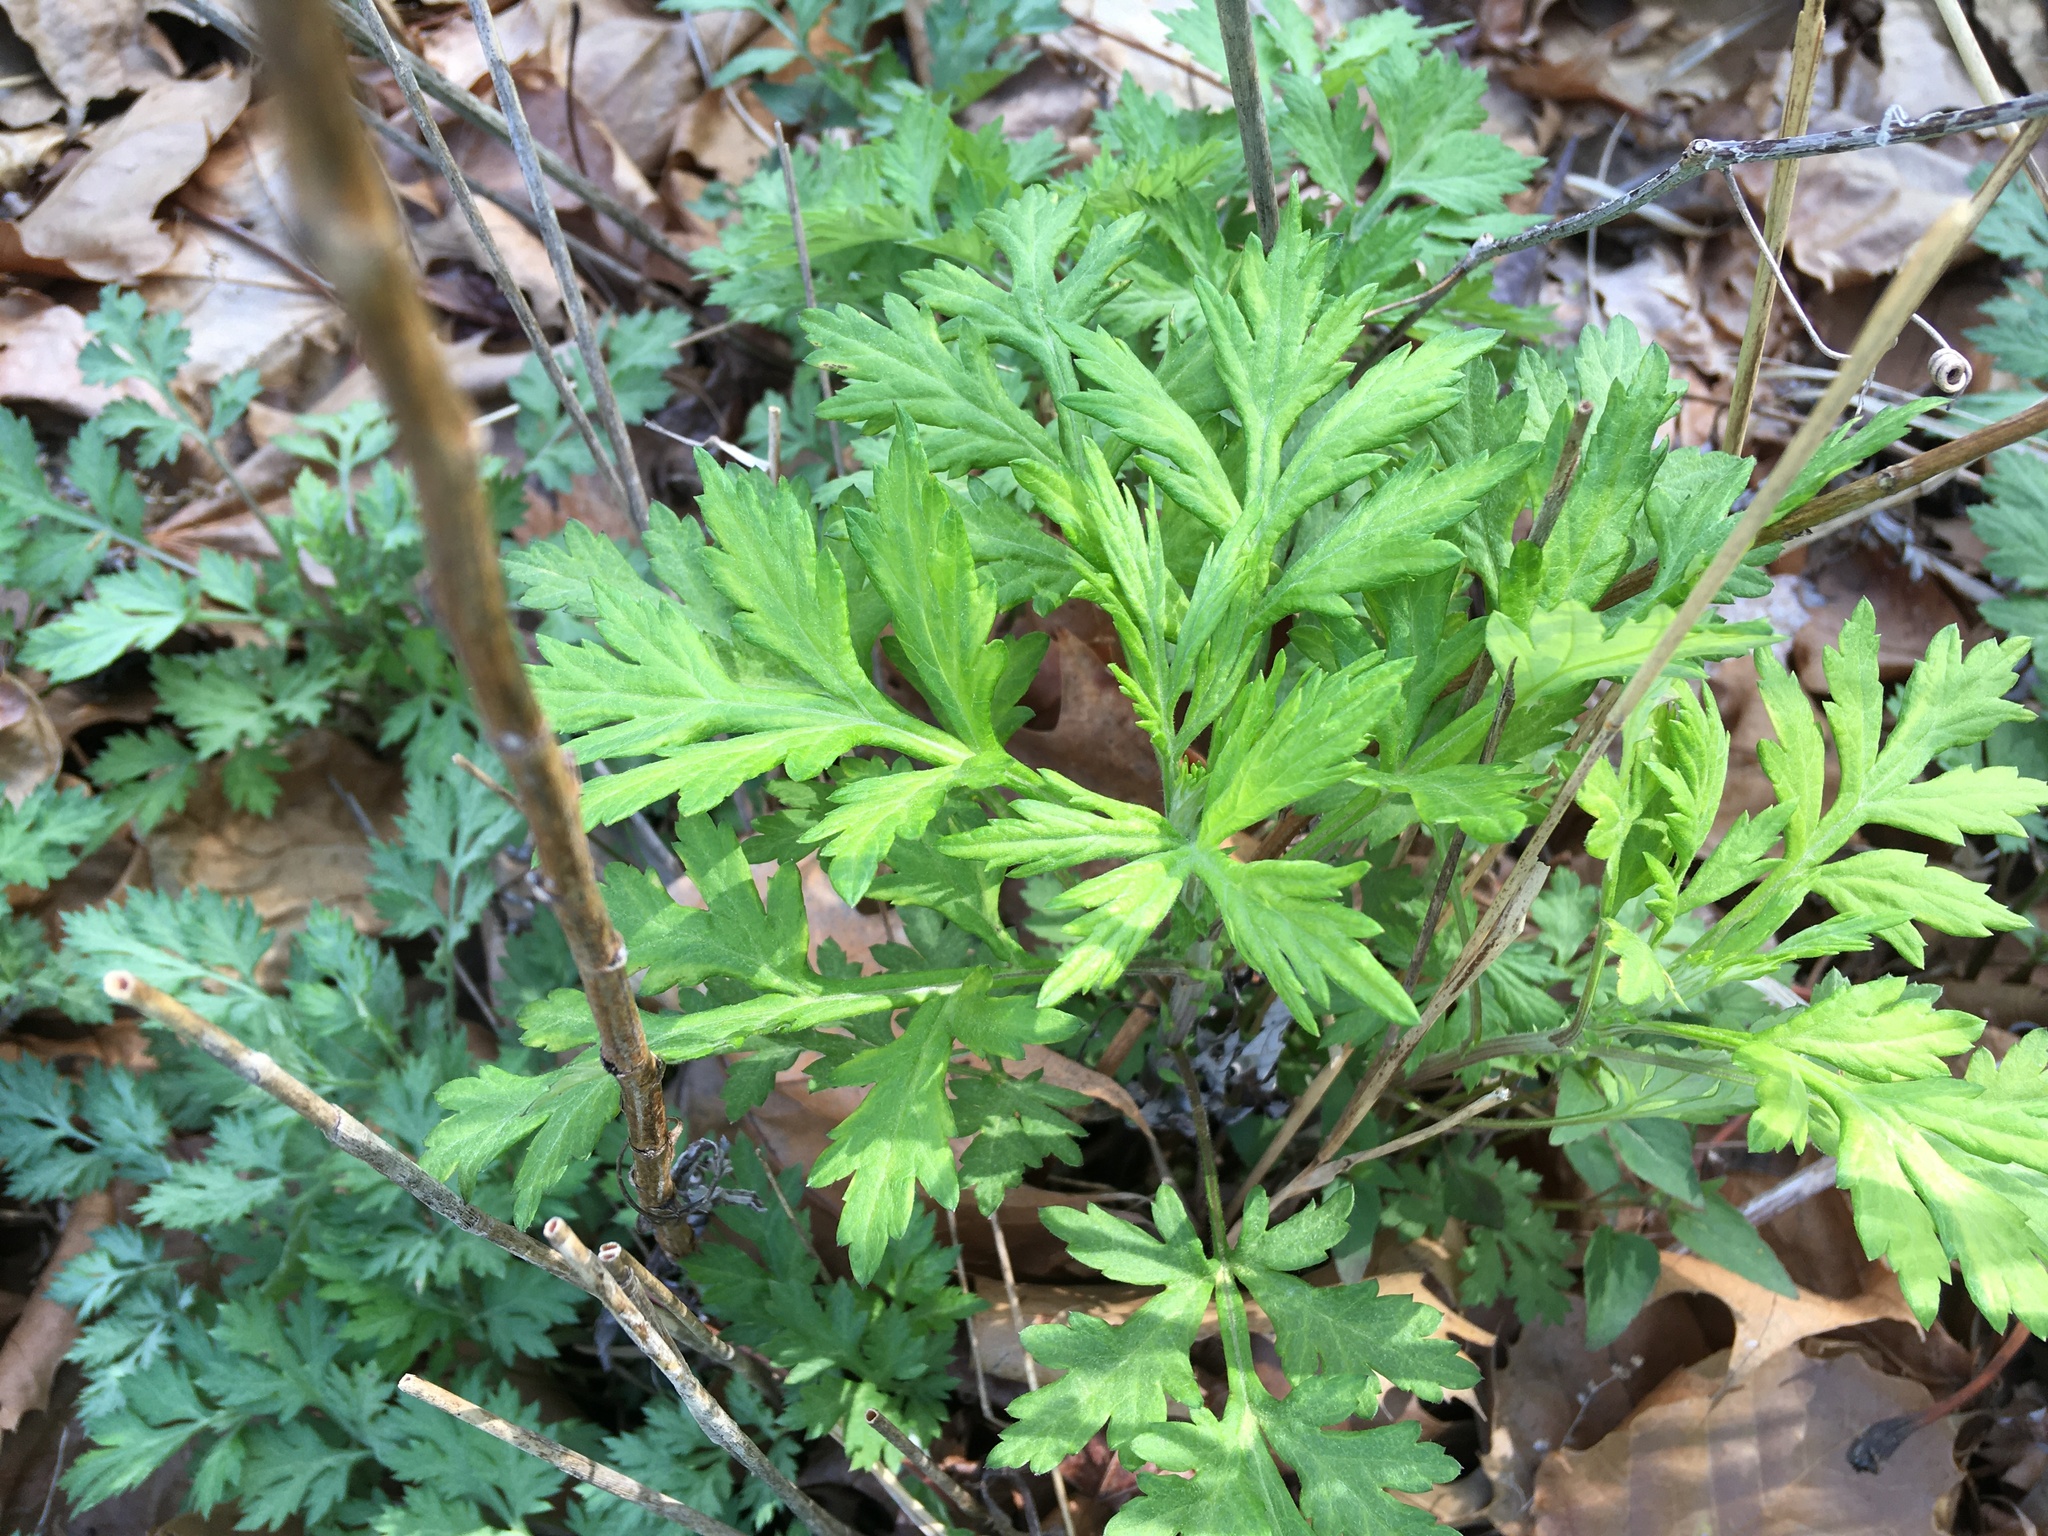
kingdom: Plantae
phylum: Tracheophyta
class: Magnoliopsida
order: Asterales
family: Asteraceae
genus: Artemisia
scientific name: Artemisia vulgaris
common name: Mugwort
